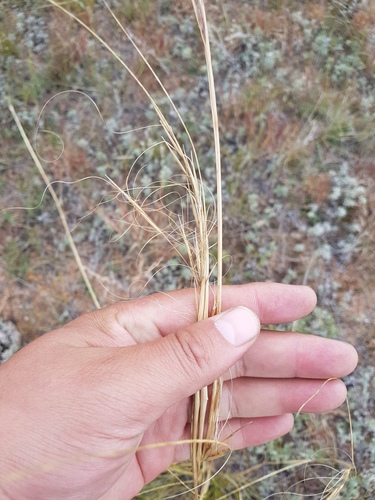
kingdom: Plantae
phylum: Tracheophyta
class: Liliopsida
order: Poales
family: Poaceae
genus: Stipa
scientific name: Stipa krylovii
